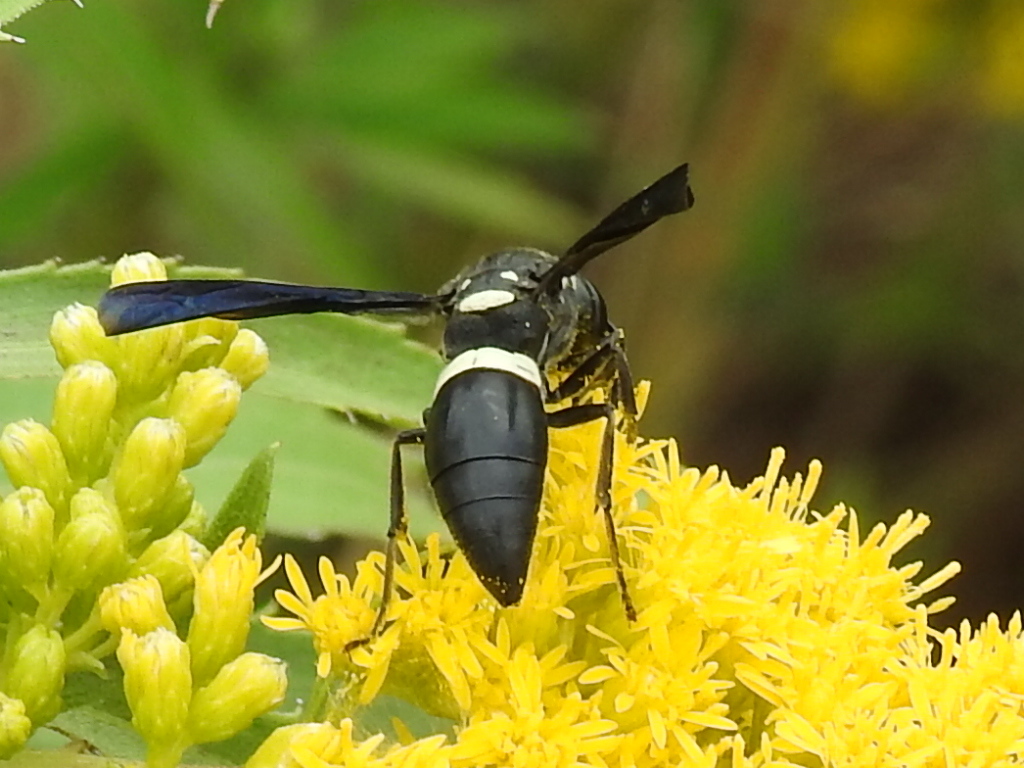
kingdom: Animalia
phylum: Arthropoda
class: Insecta
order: Hymenoptera
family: Eumenidae
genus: Monobia
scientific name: Monobia quadridens
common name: Four-toothed mason wasp
